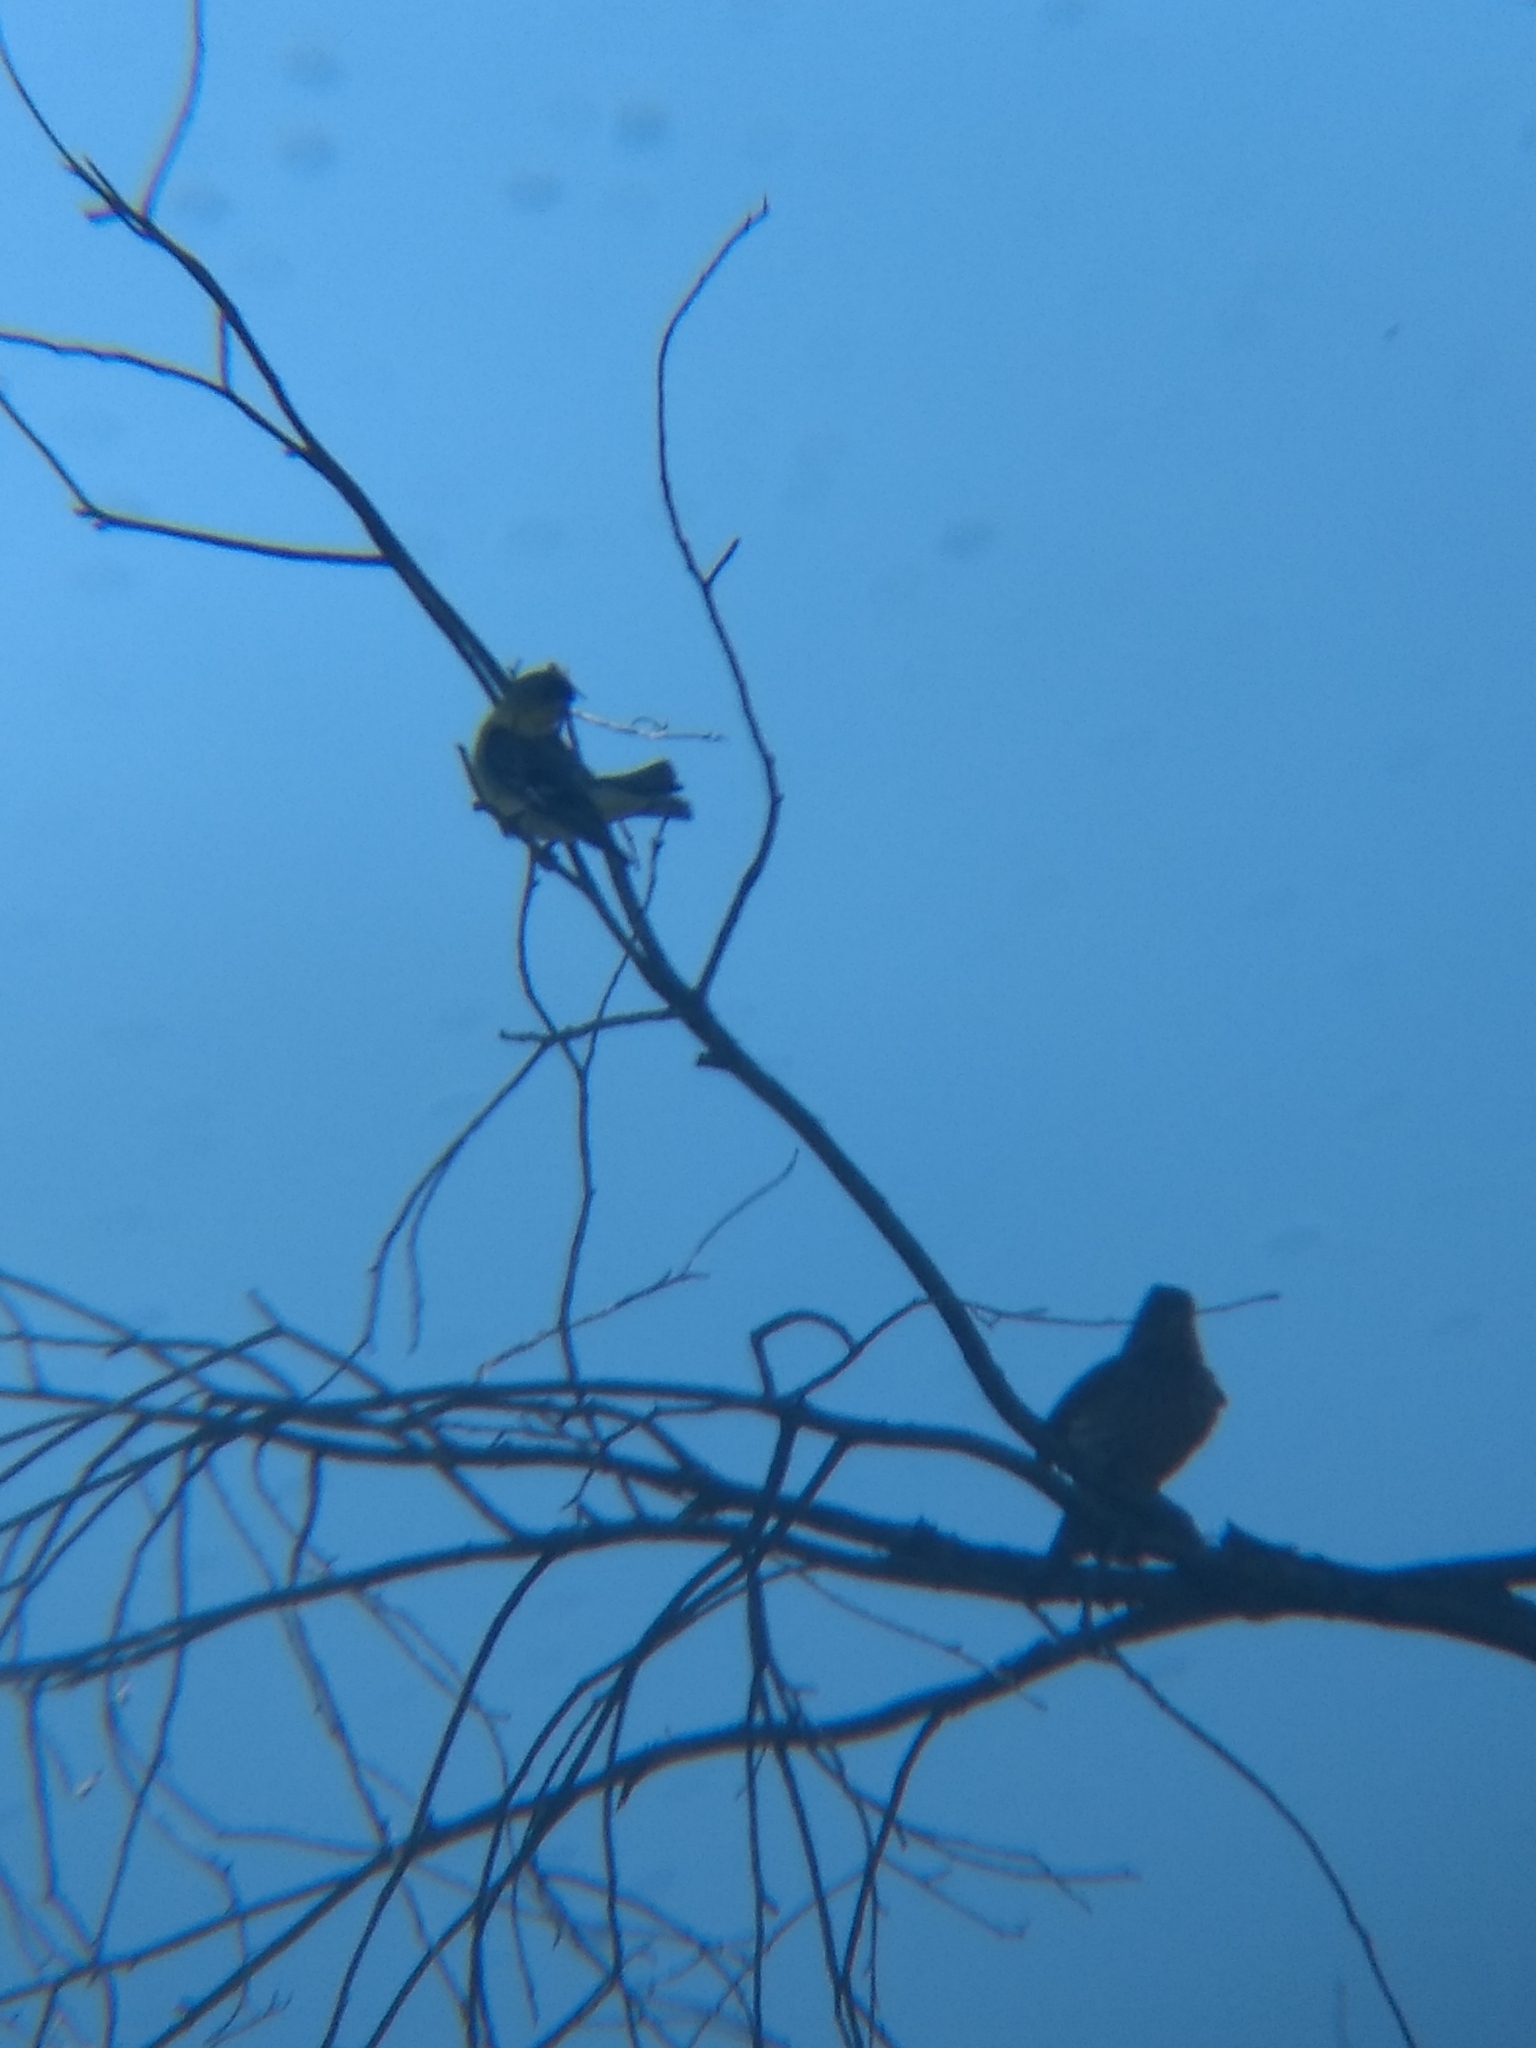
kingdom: Animalia
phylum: Chordata
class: Aves
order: Passeriformes
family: Fringillidae
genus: Spinus
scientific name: Spinus psaltria
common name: Lesser goldfinch
